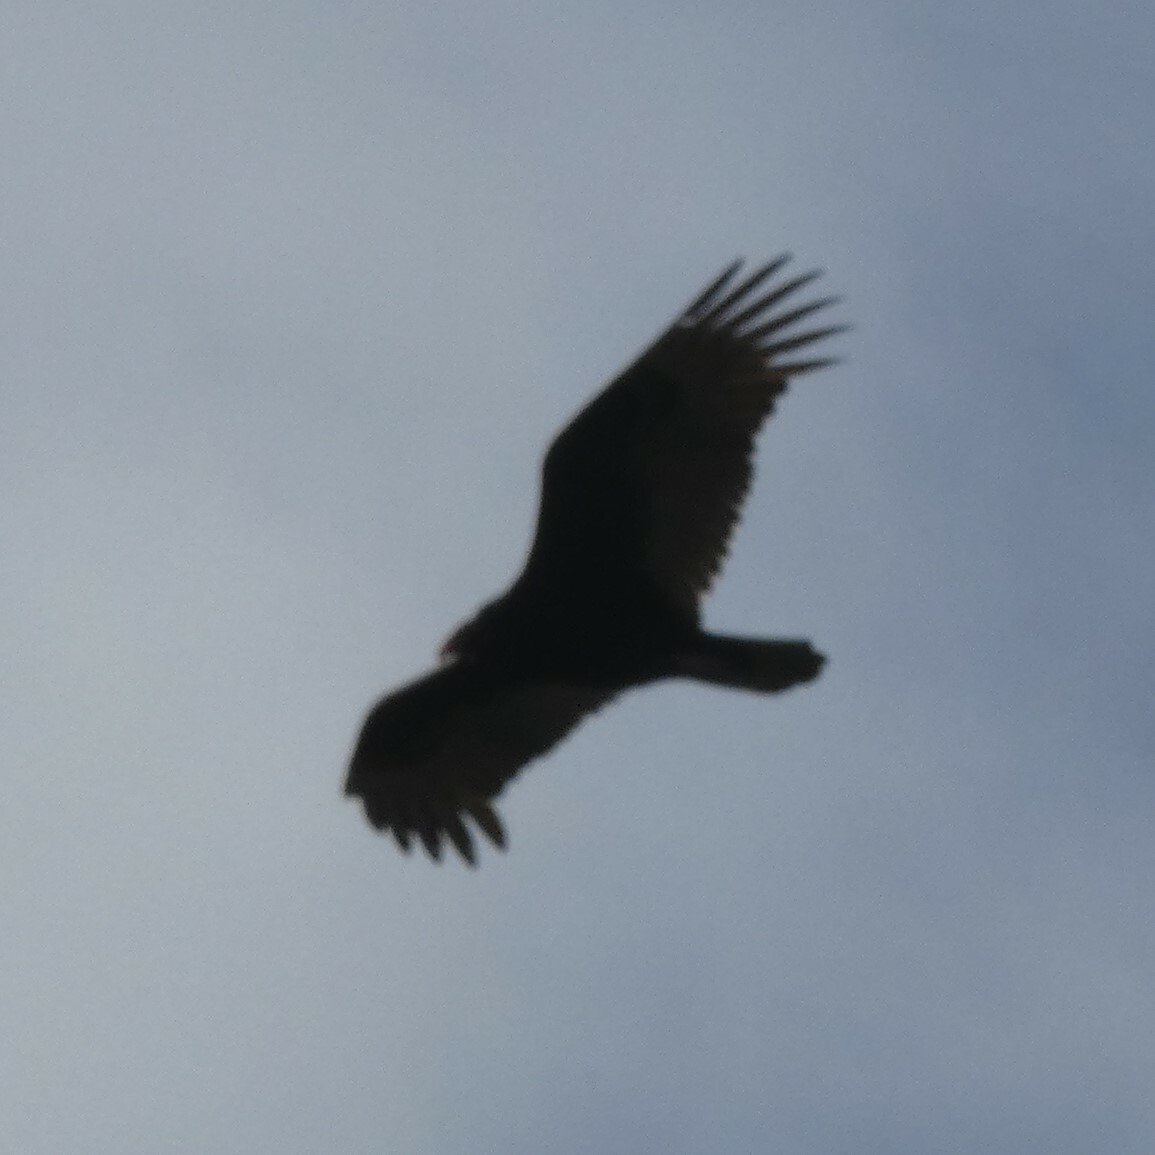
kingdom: Animalia
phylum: Chordata
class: Aves
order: Accipitriformes
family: Cathartidae
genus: Cathartes
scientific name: Cathartes aura
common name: Turkey vulture
